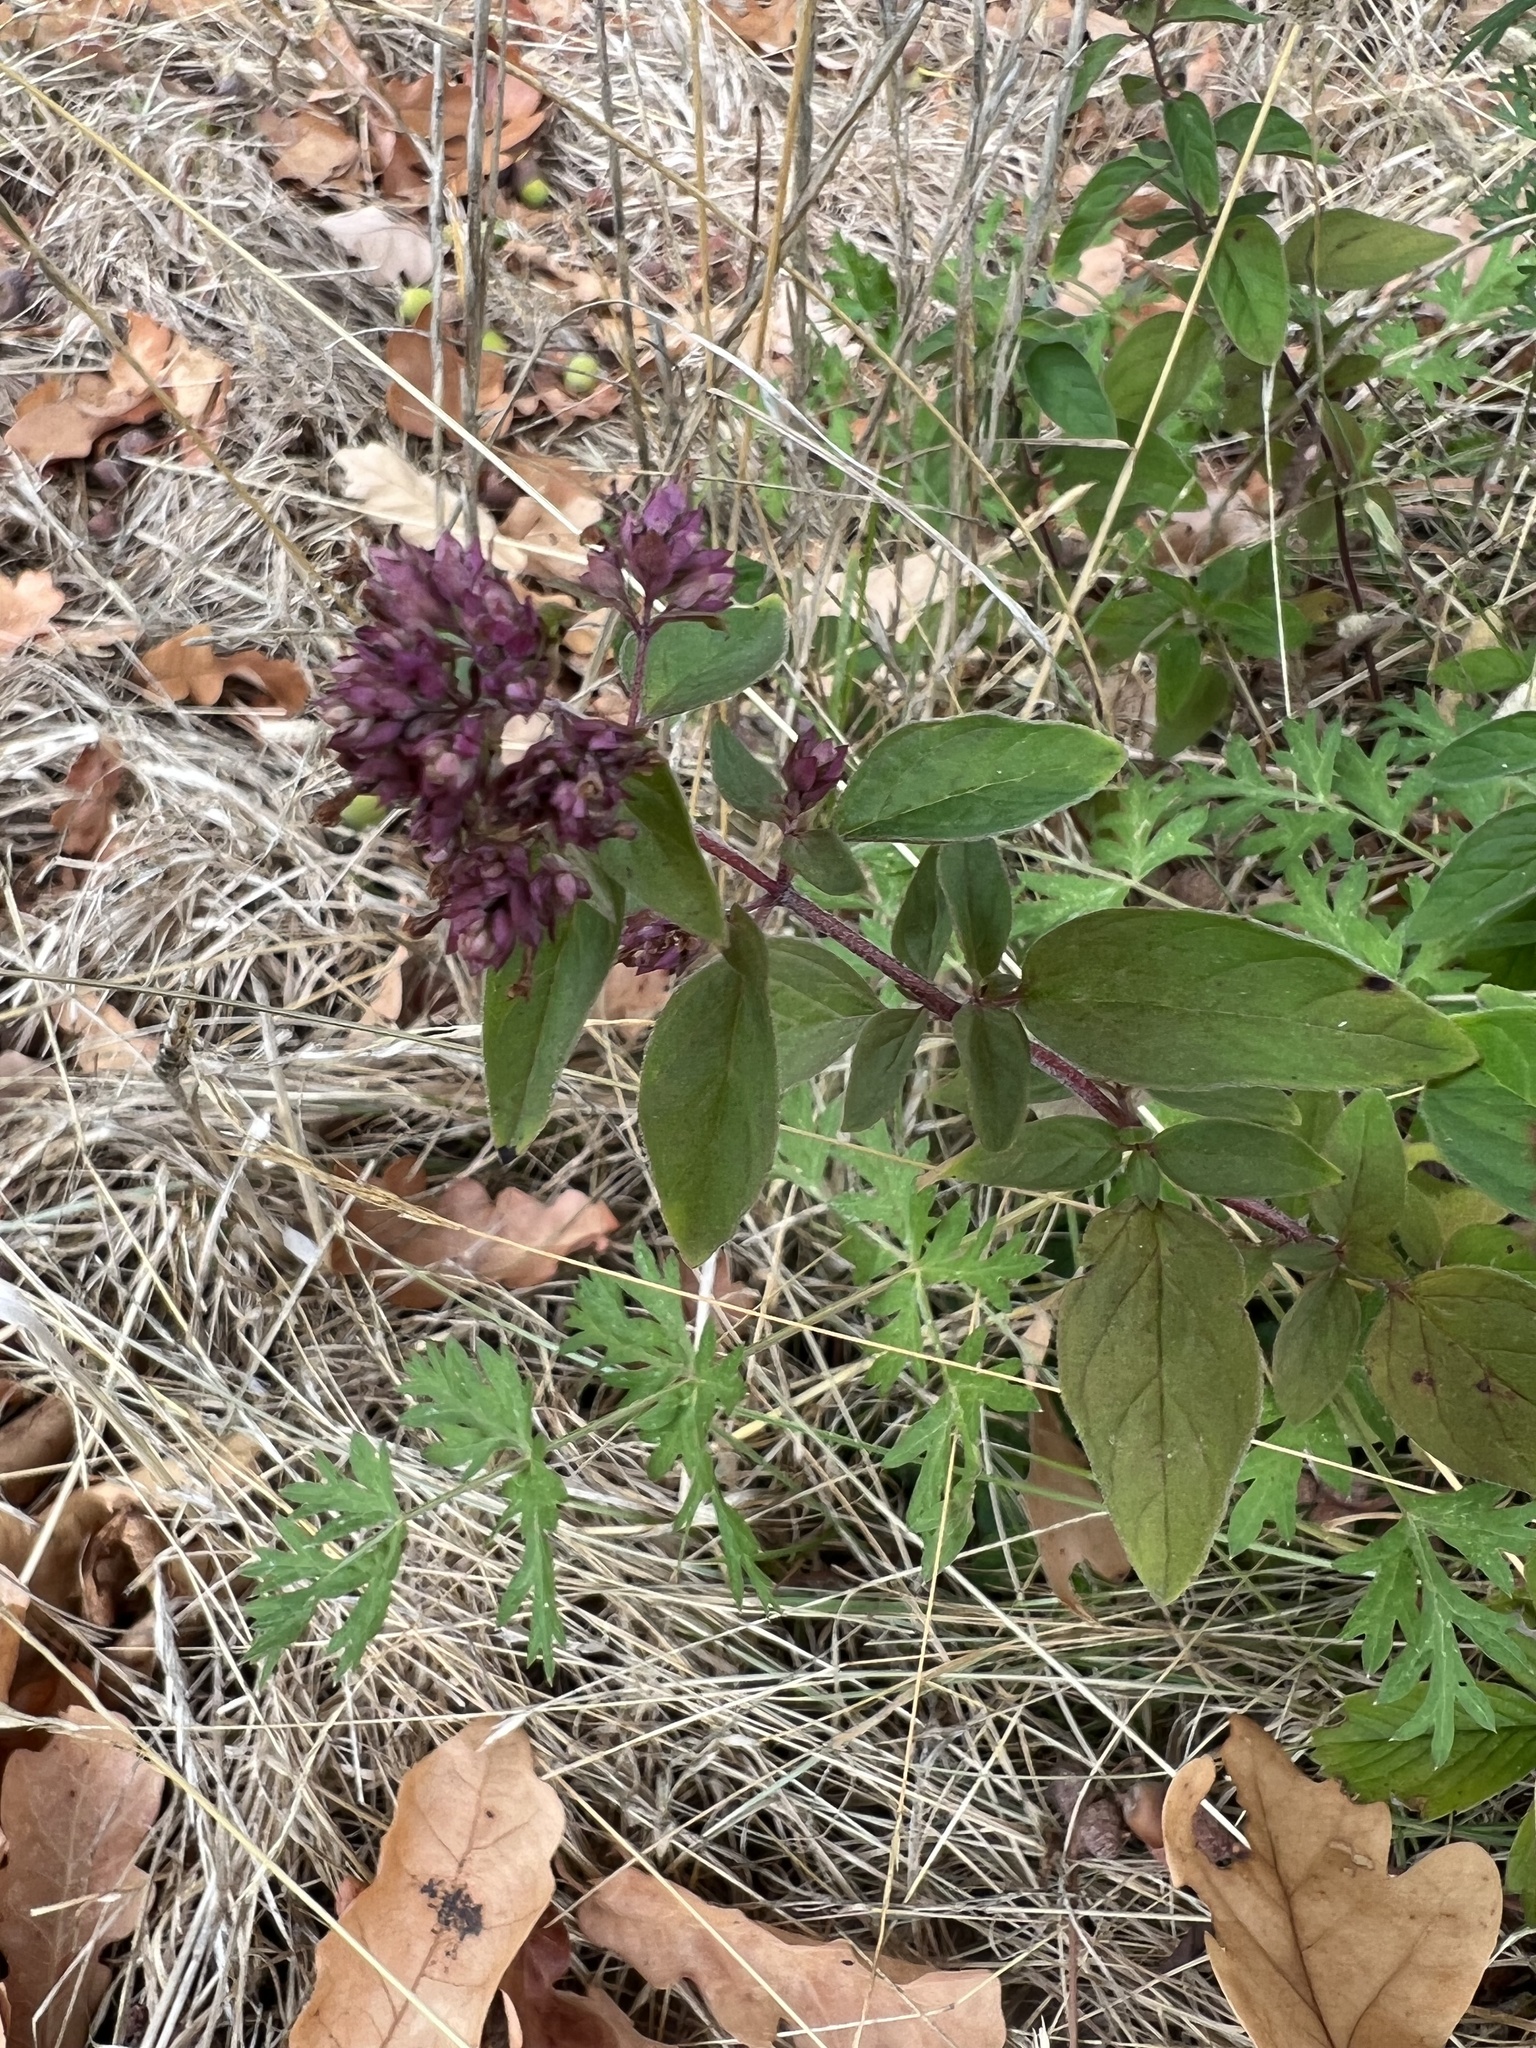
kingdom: Plantae
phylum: Tracheophyta
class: Magnoliopsida
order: Lamiales
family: Lamiaceae
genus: Origanum
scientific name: Origanum vulgare
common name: Wild marjoram
